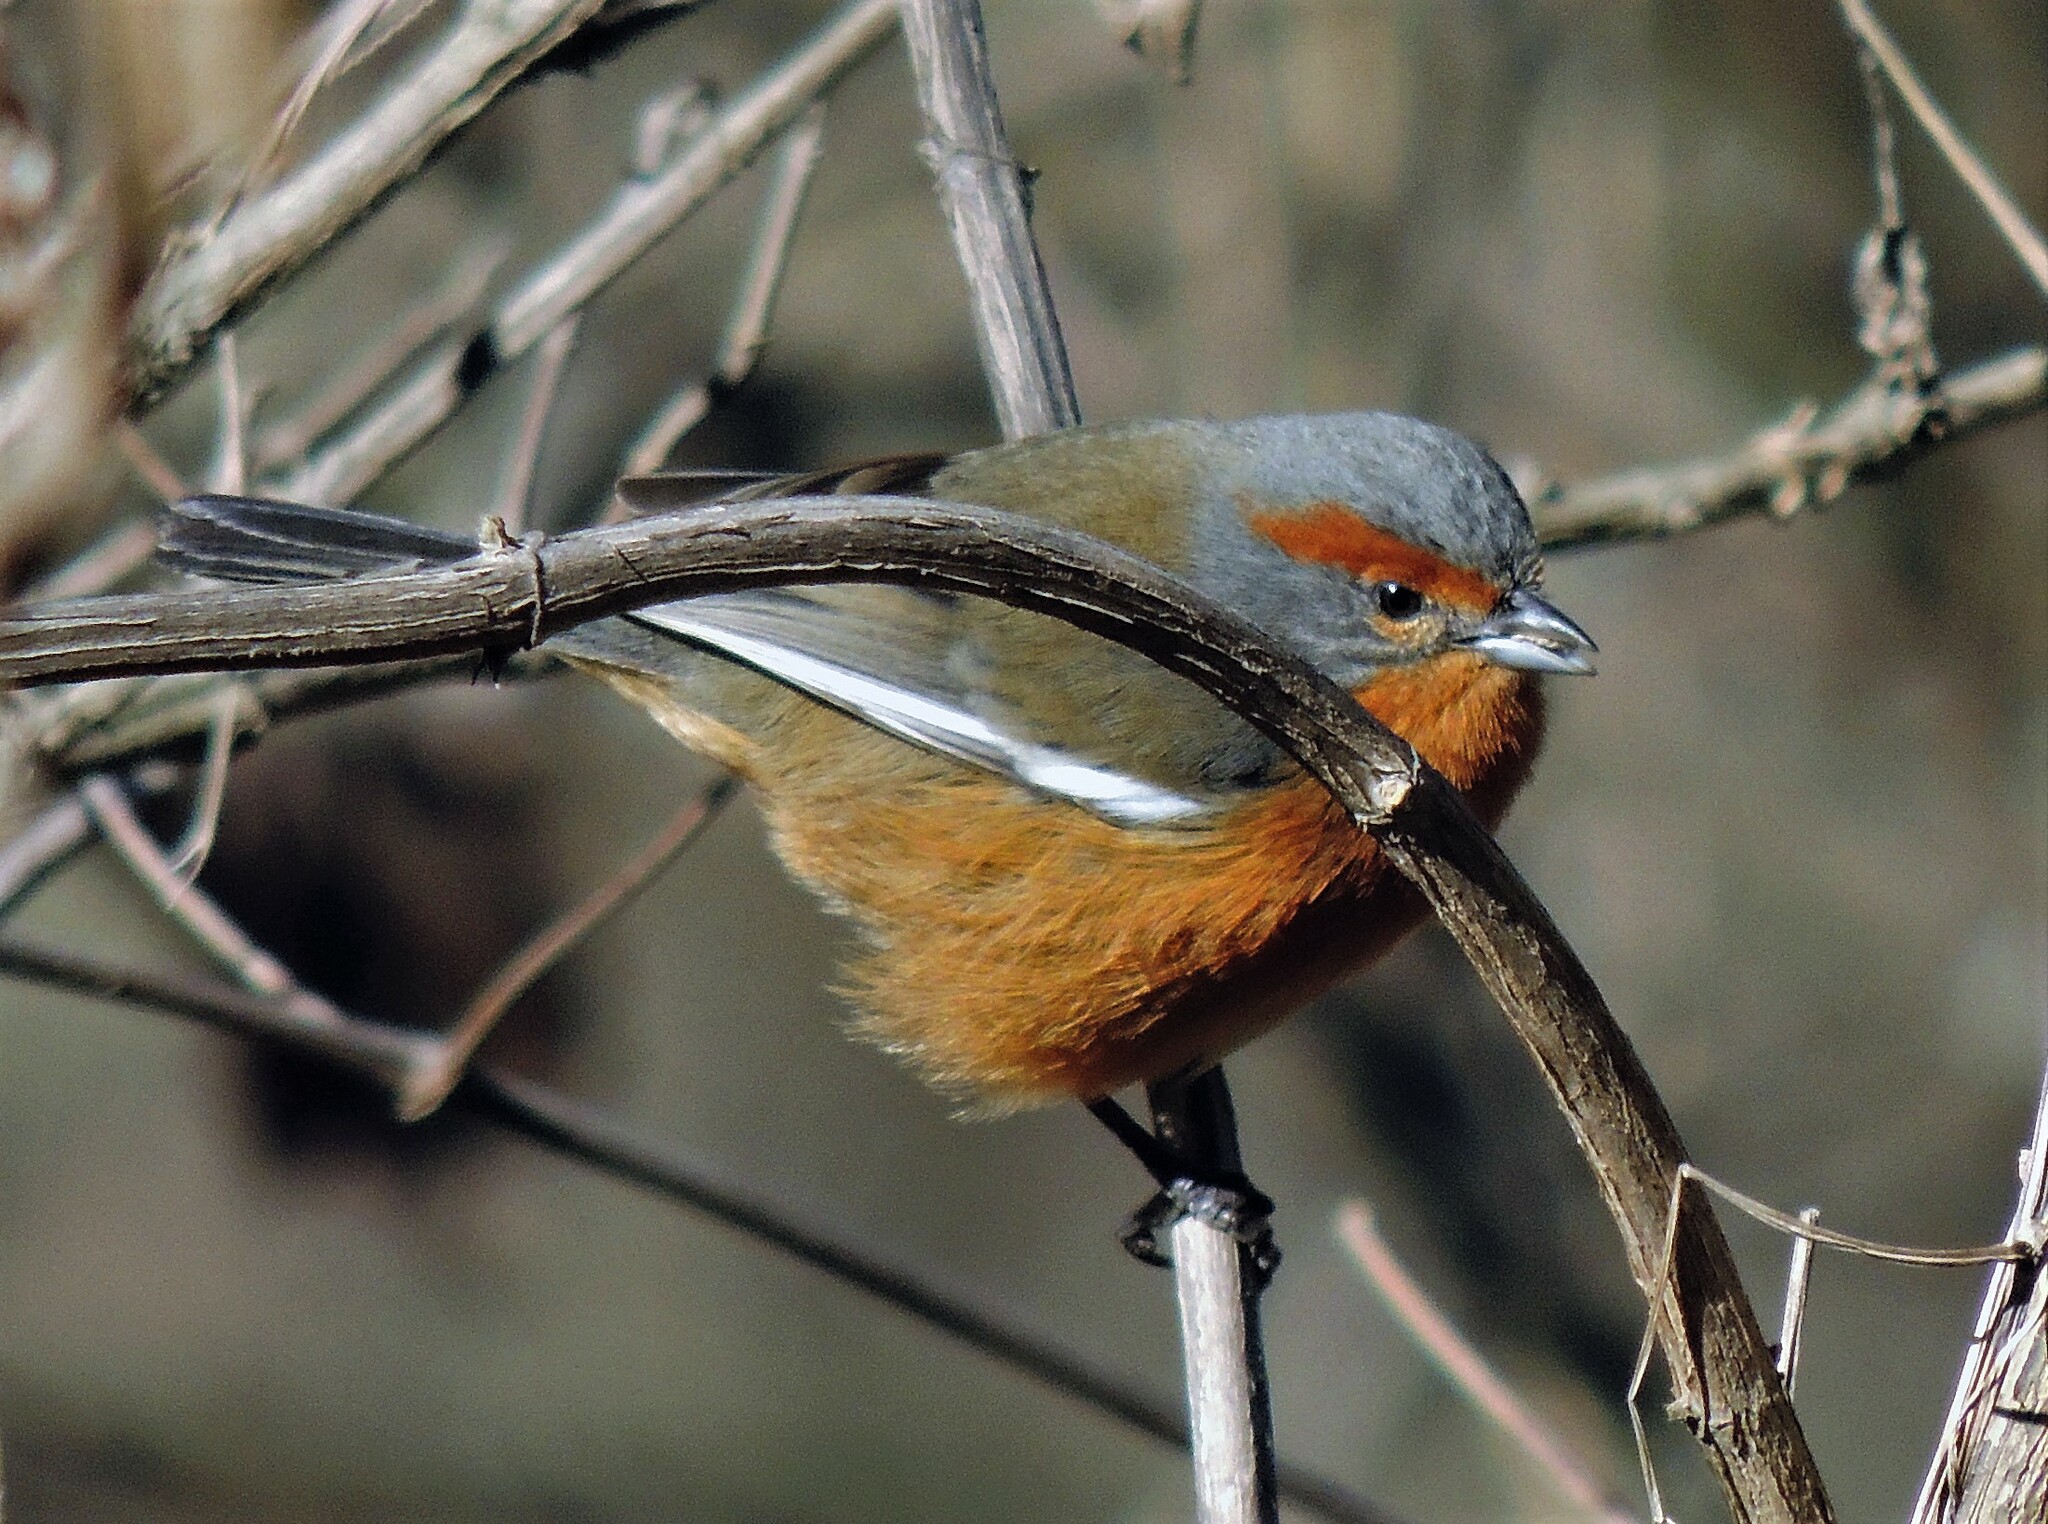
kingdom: Animalia
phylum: Chordata
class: Aves
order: Passeriformes
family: Thraupidae
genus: Microspingus
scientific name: Microspingus erythrophrys
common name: Rusty-browed warbling-finch
